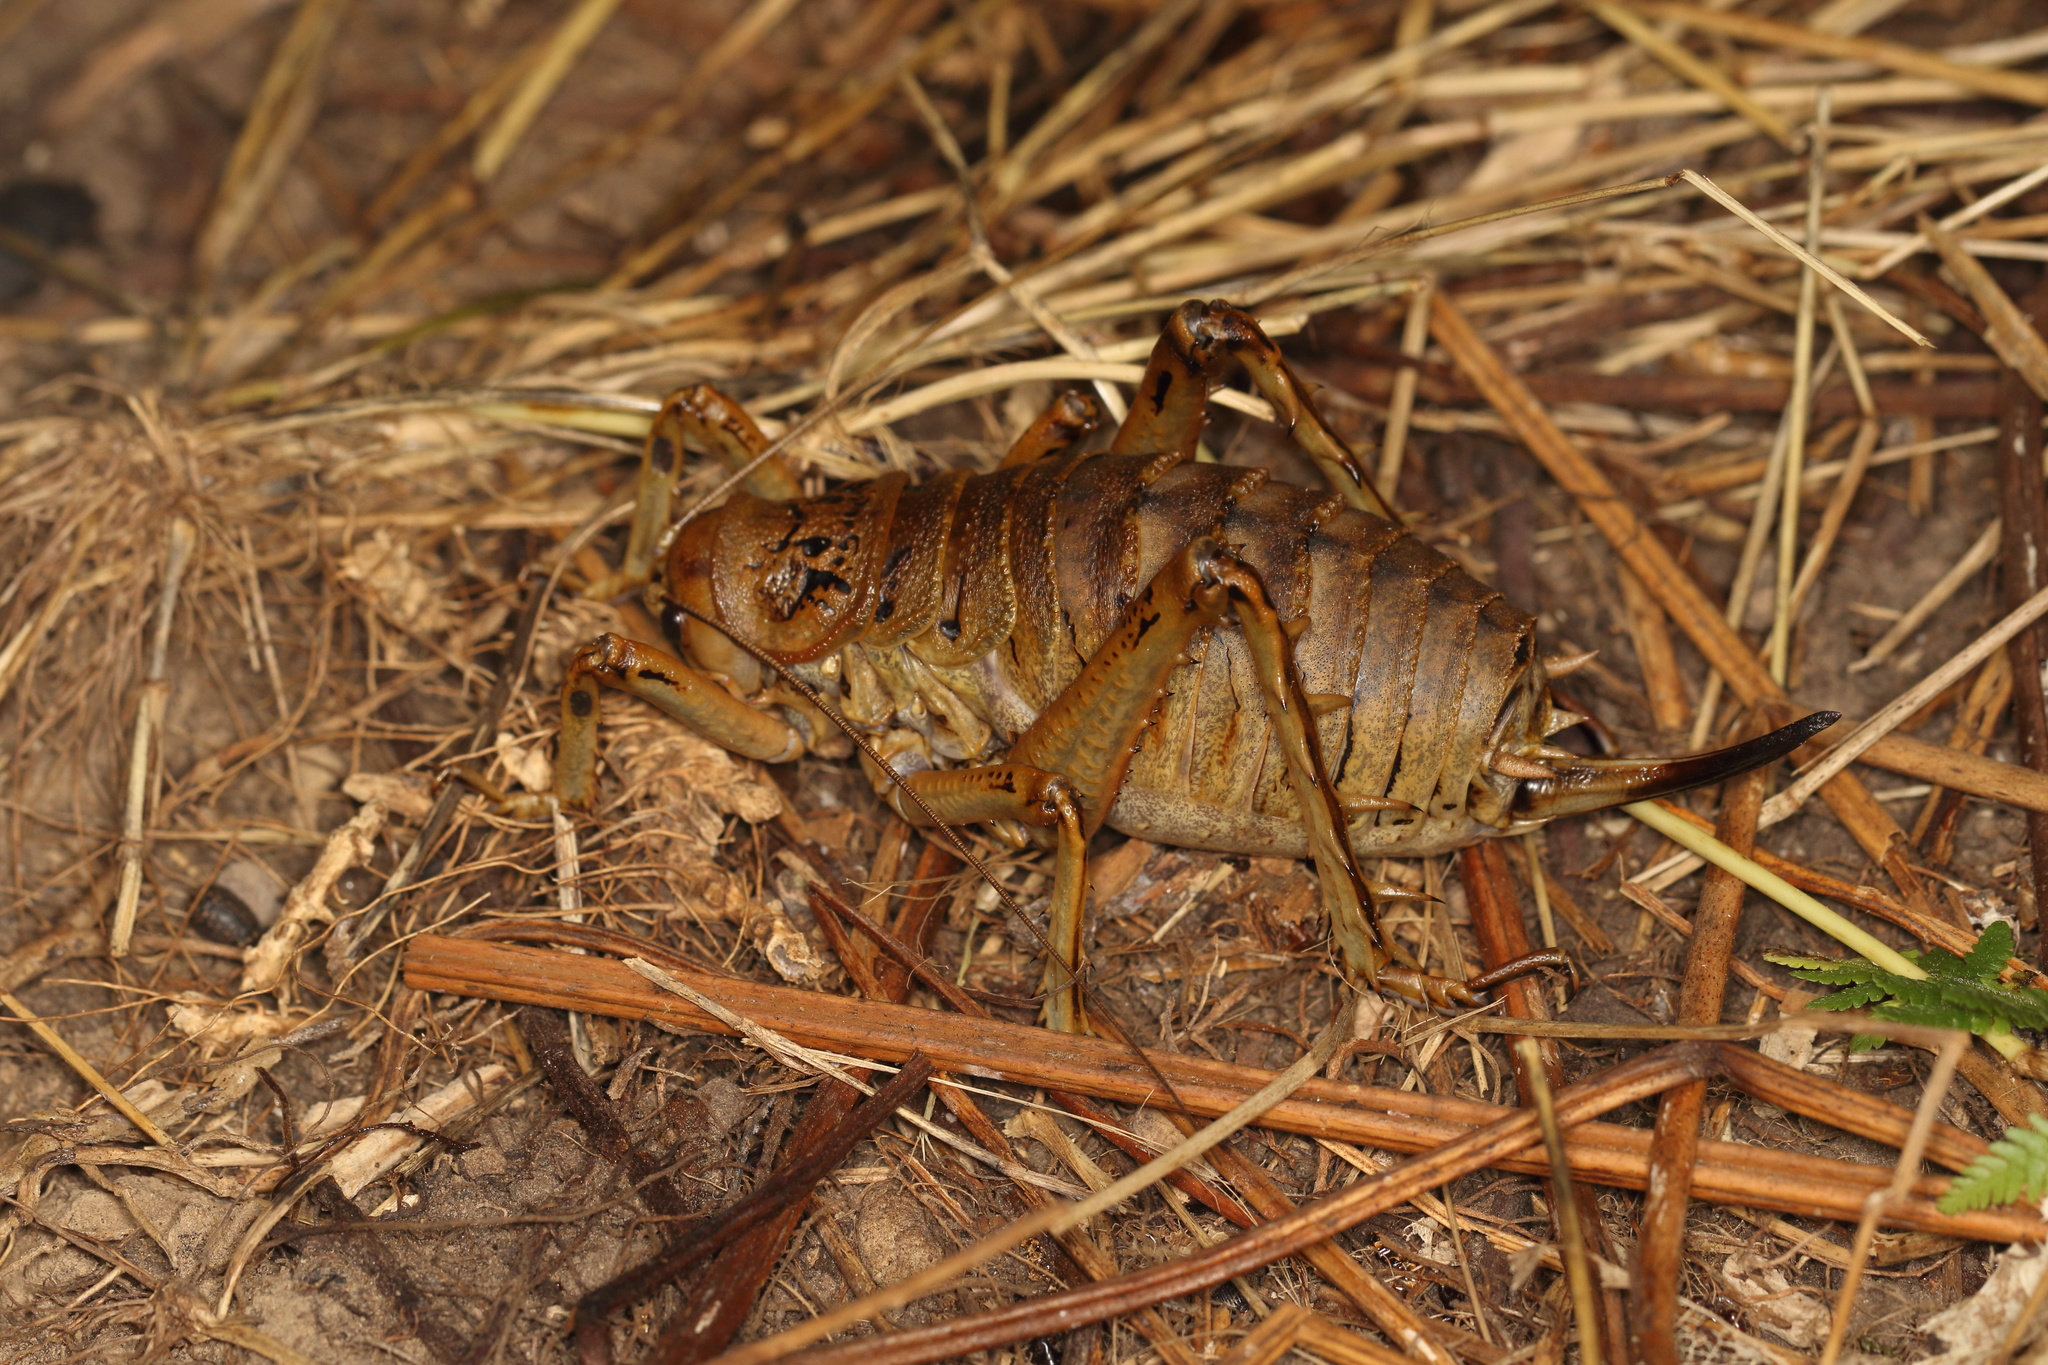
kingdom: Animalia
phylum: Arthropoda
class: Insecta
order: Orthoptera
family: Anostostomatidae
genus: Deinacrida
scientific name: Deinacrida rugosa
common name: Stephens island weta
